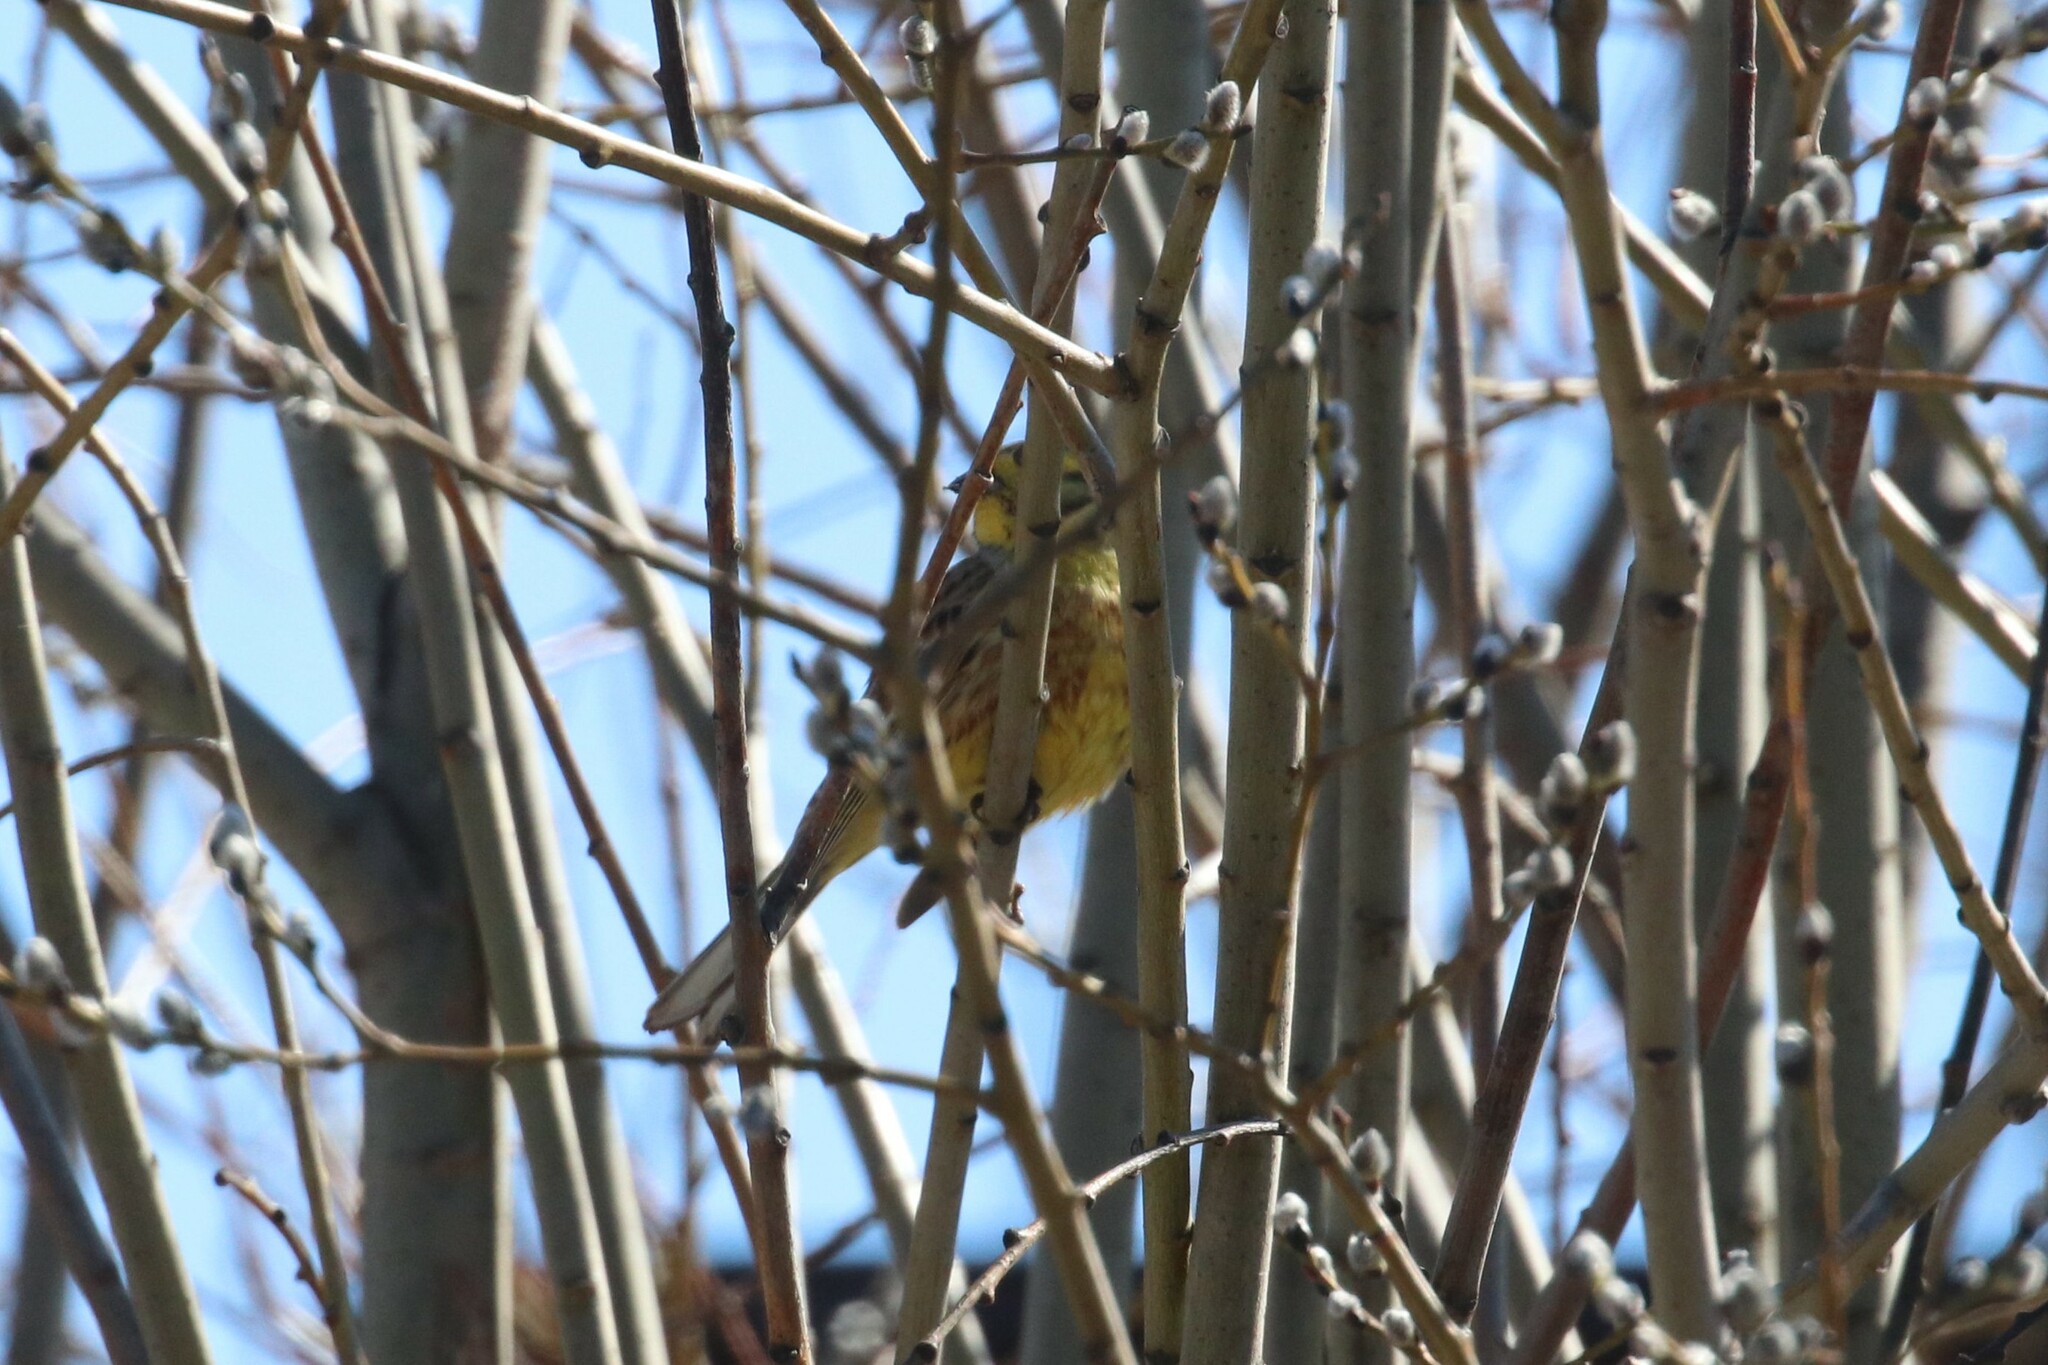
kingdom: Animalia
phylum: Chordata
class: Aves
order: Passeriformes
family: Emberizidae
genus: Emberiza
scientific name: Emberiza citrinella
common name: Yellowhammer
